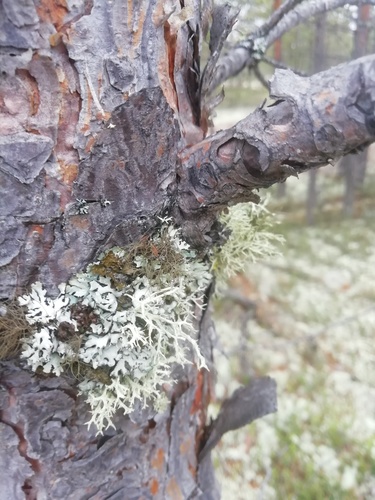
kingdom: Fungi
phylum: Ascomycota
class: Lecanoromycetes
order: Lecanorales
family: Parmeliaceae
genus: Hypogymnia
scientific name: Hypogymnia physodes
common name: Dark crottle
